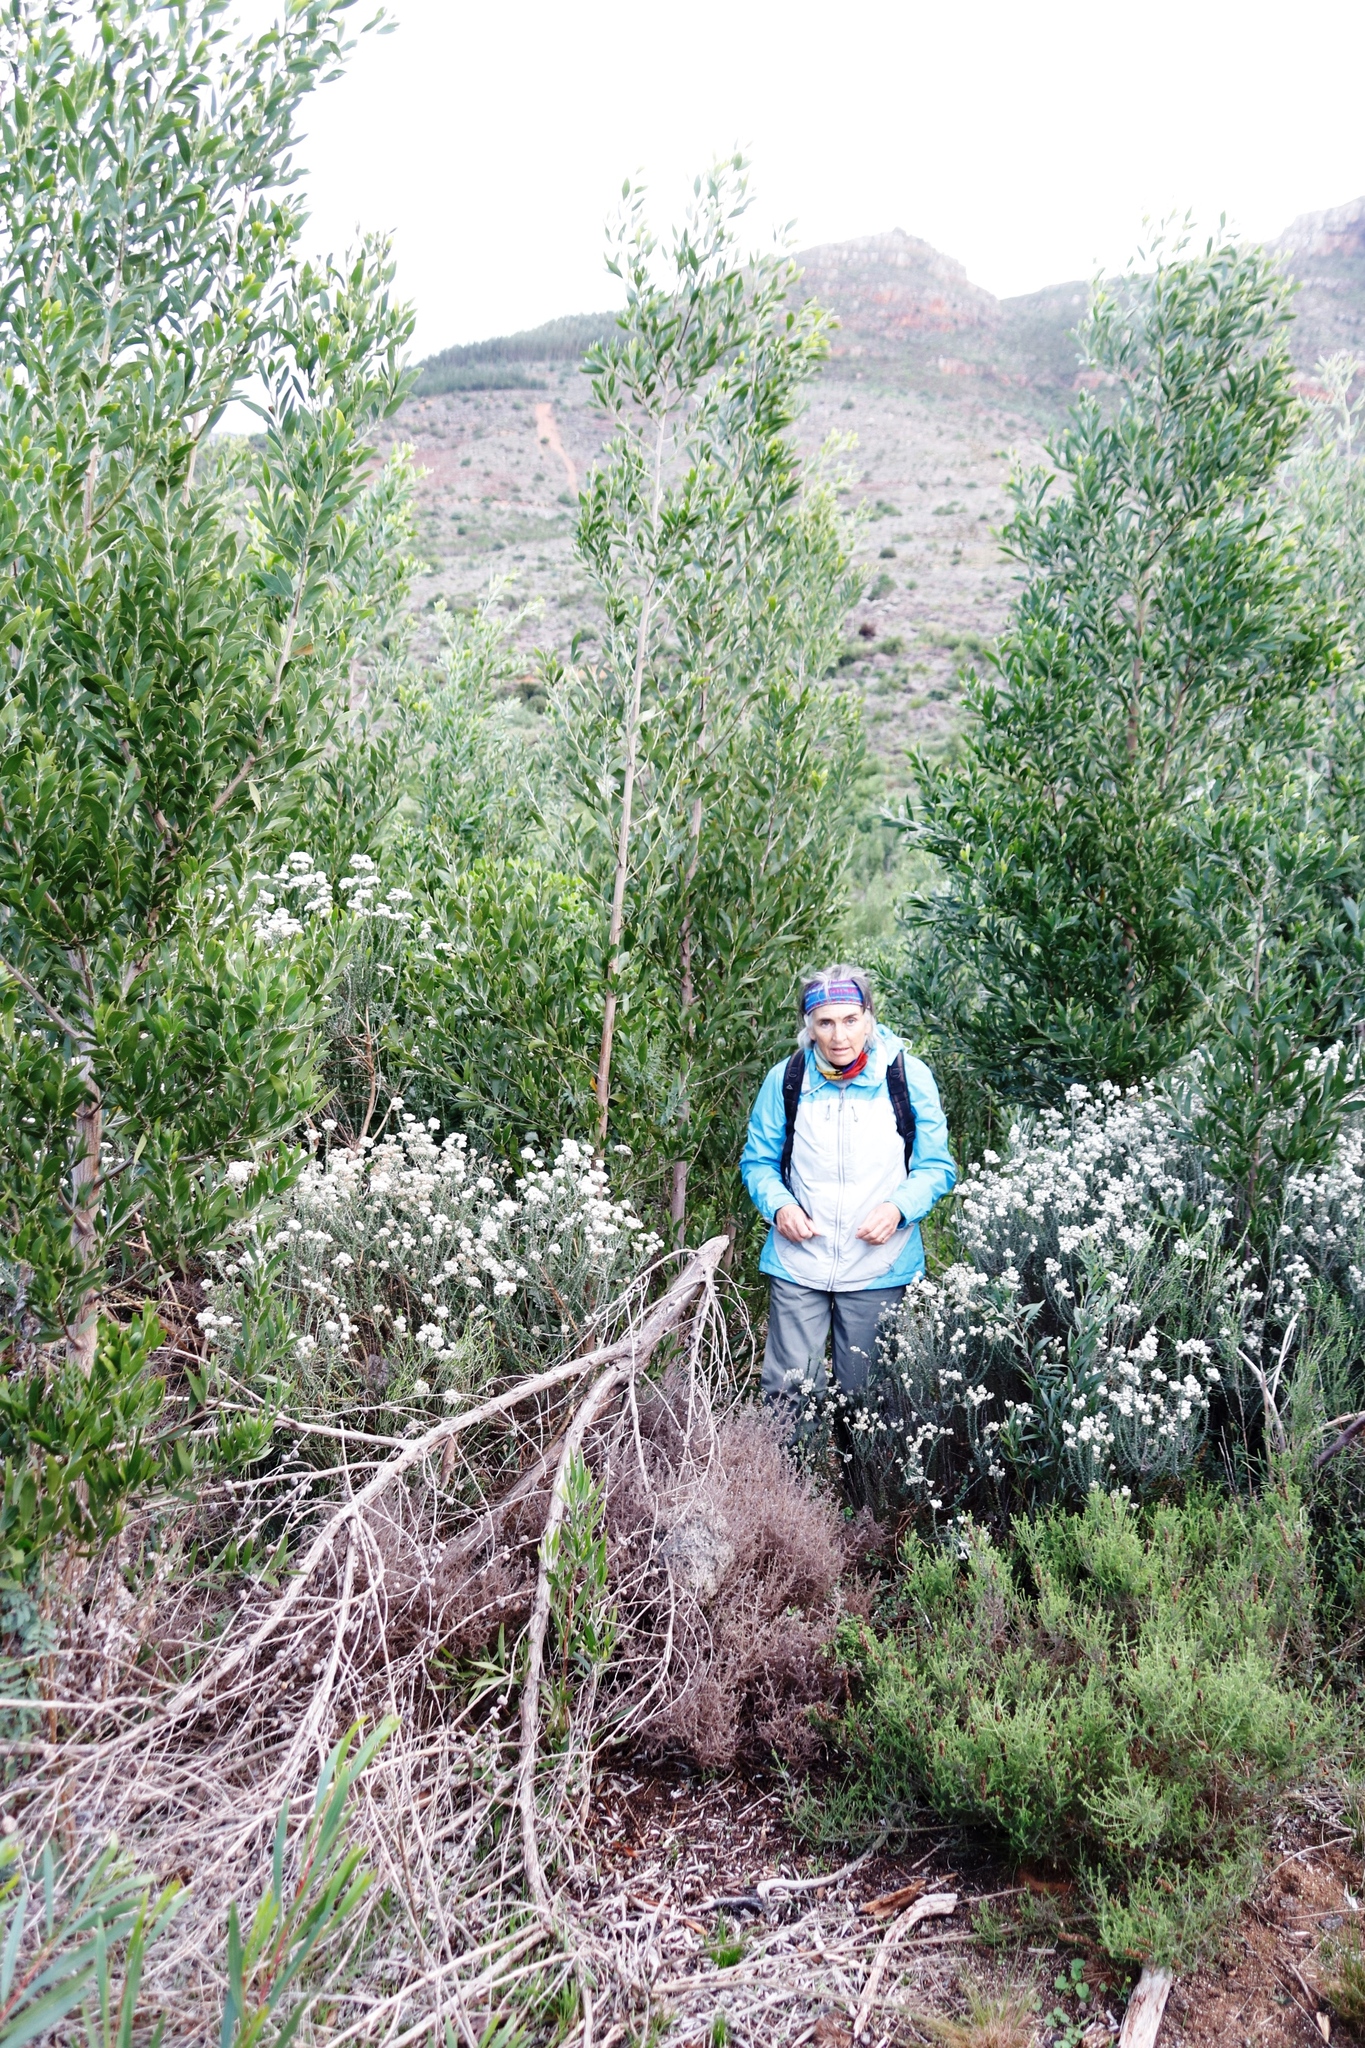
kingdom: Plantae
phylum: Tracheophyta
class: Magnoliopsida
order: Asterales
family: Asteraceae
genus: Metalasia
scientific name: Metalasia densa
